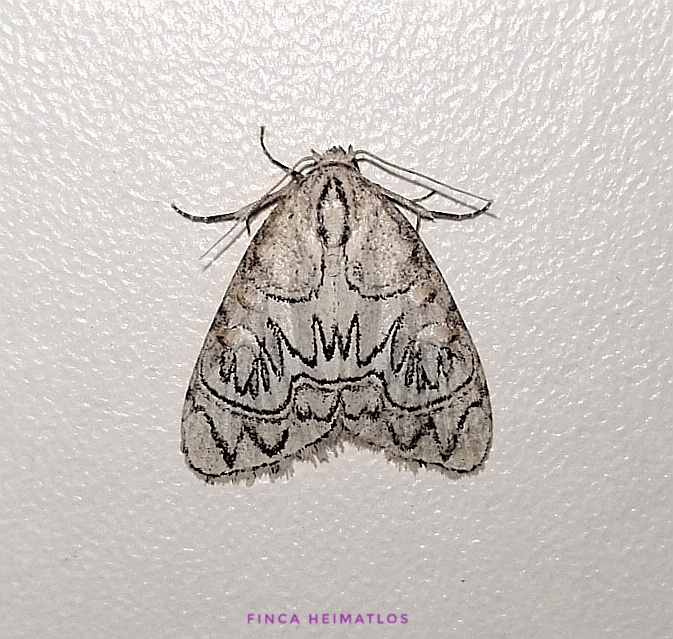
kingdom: Animalia
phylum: Arthropoda
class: Insecta
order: Lepidoptera
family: Nolidae
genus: Meganola
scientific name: Meganola
